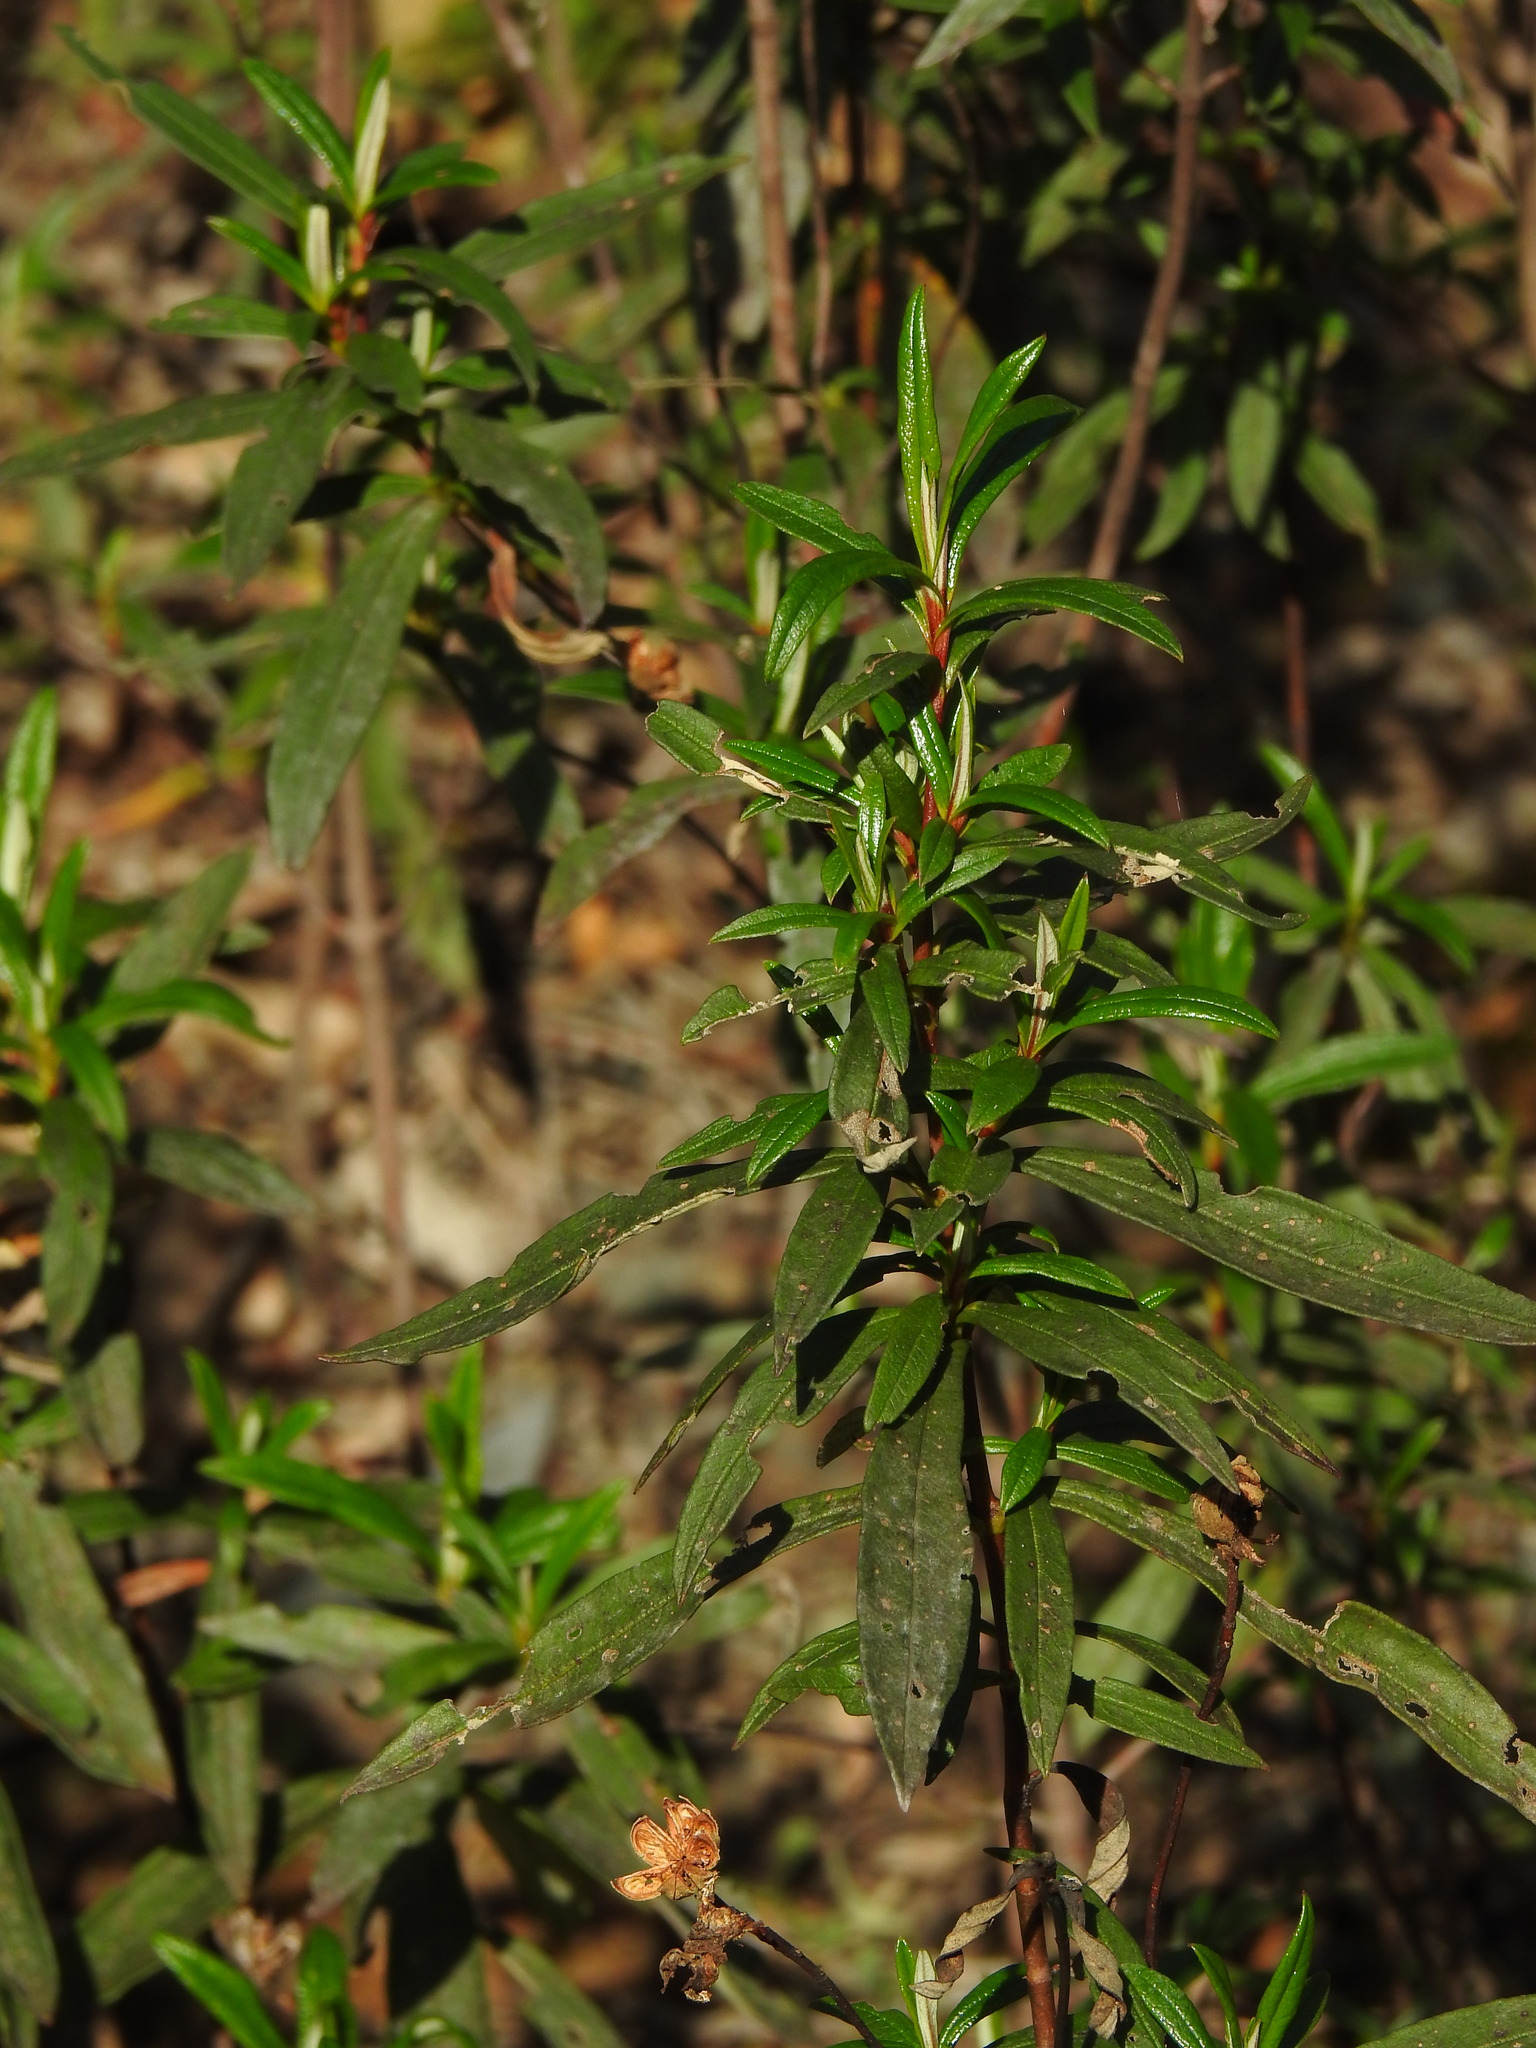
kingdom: Plantae
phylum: Tracheophyta
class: Magnoliopsida
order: Malvales
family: Cistaceae
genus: Cistus
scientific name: Cistus ladanifer
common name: Common gum cistus
